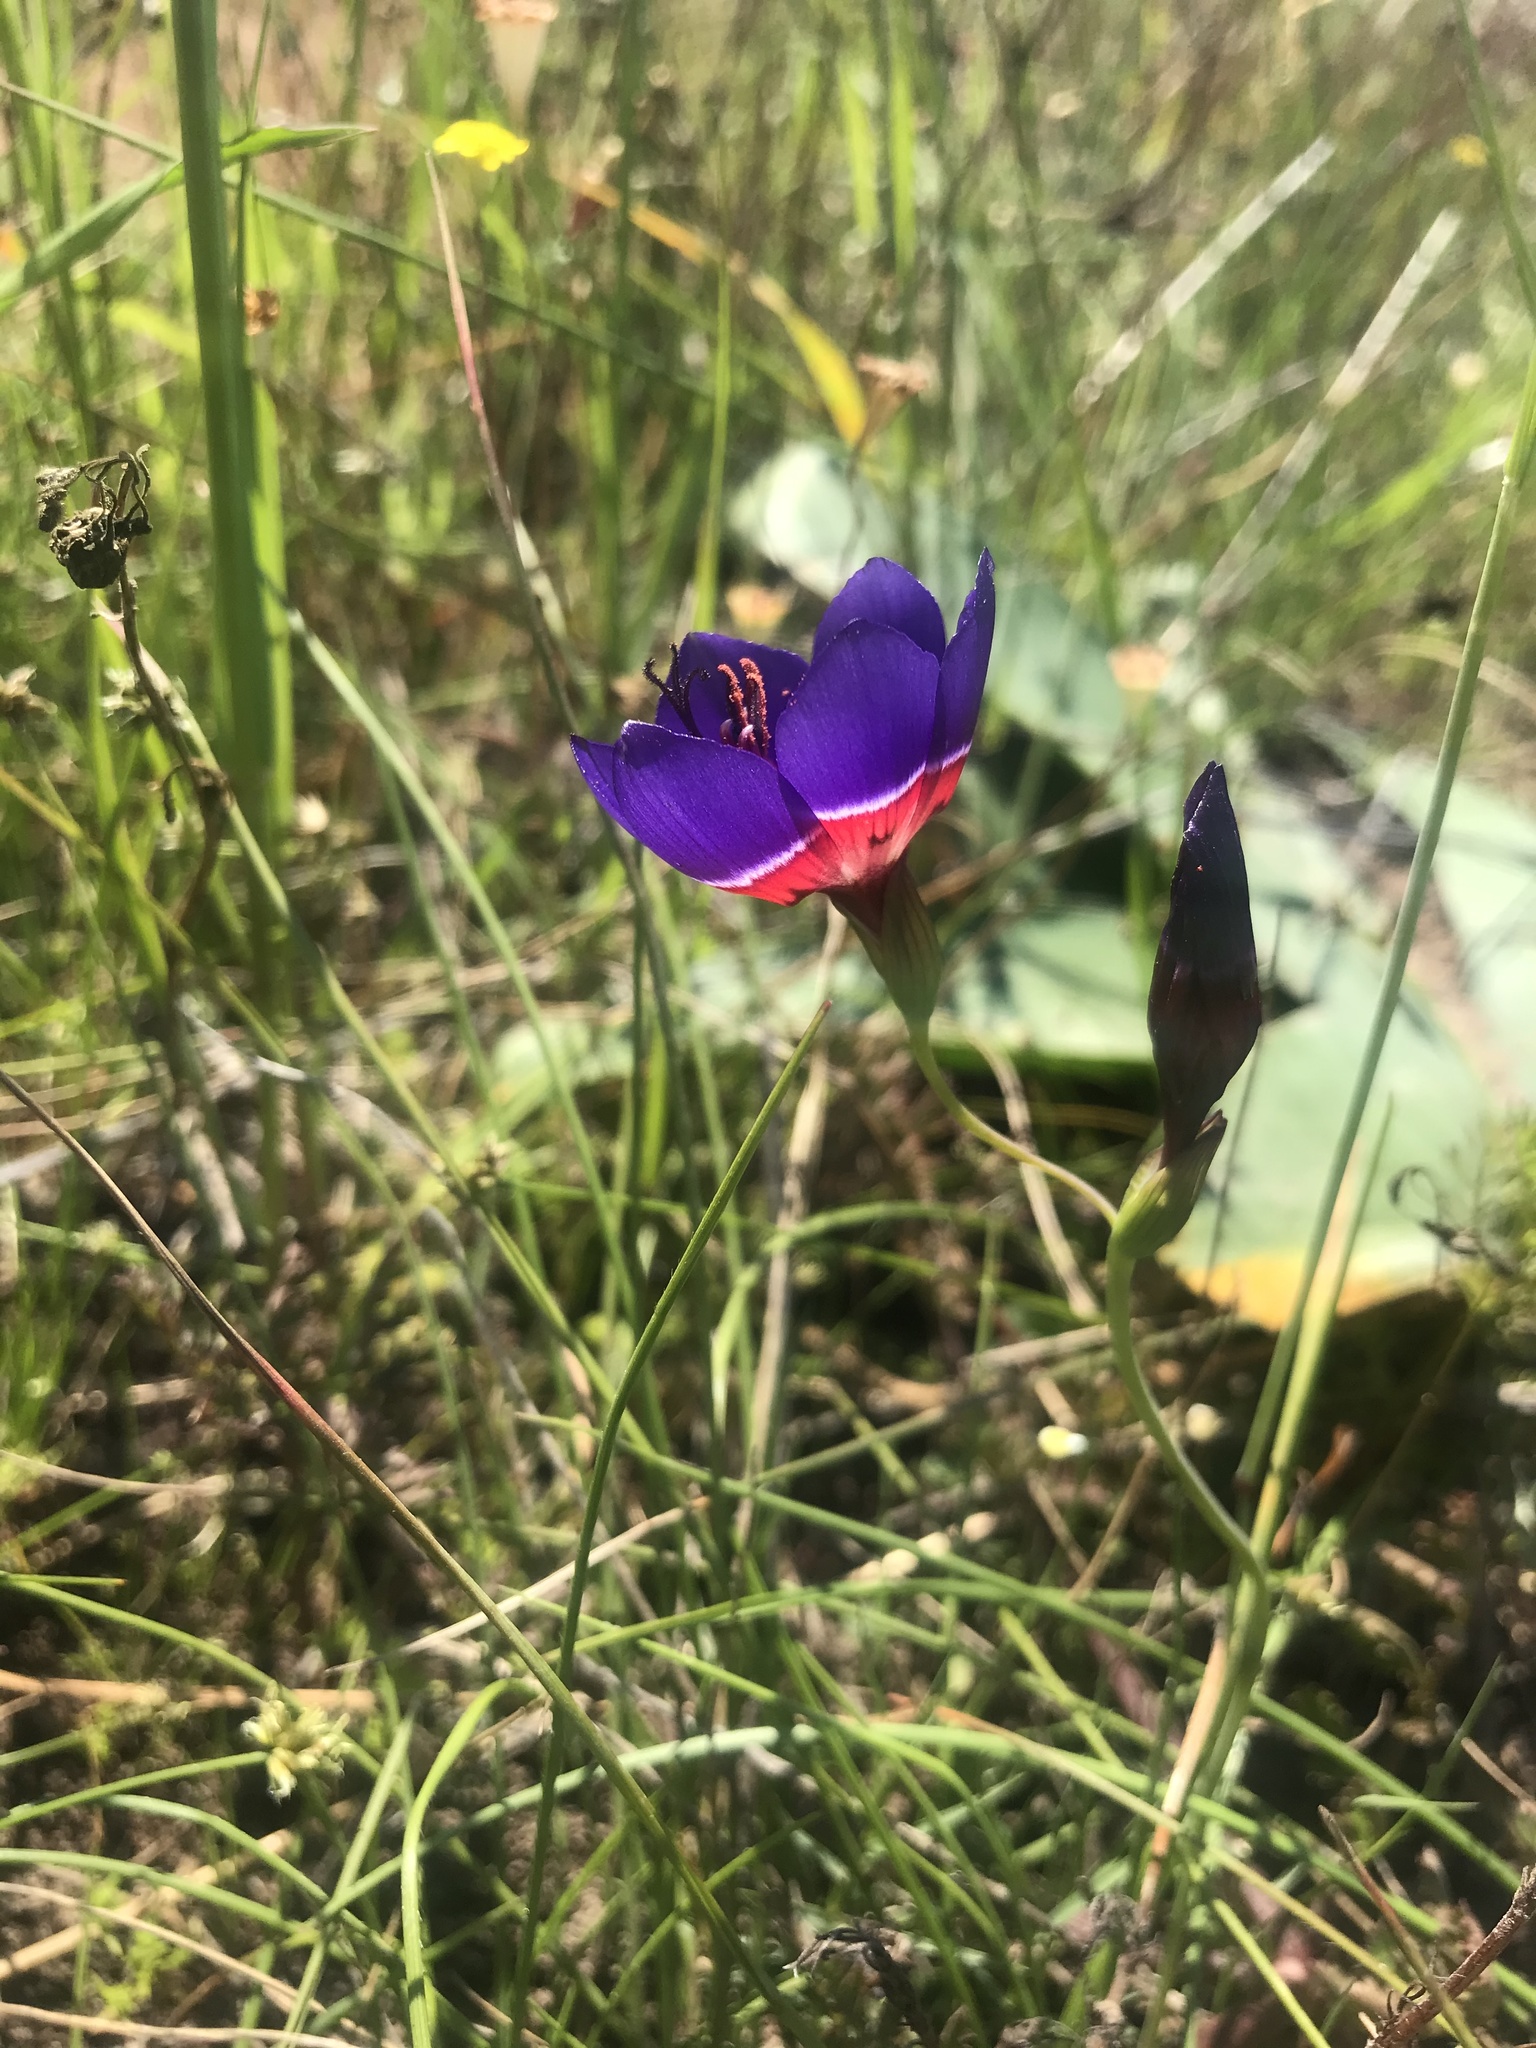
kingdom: Plantae
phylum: Tracheophyta
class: Liliopsida
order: Asparagales
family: Iridaceae
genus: Geissorhiza
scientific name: Geissorhiza radians
